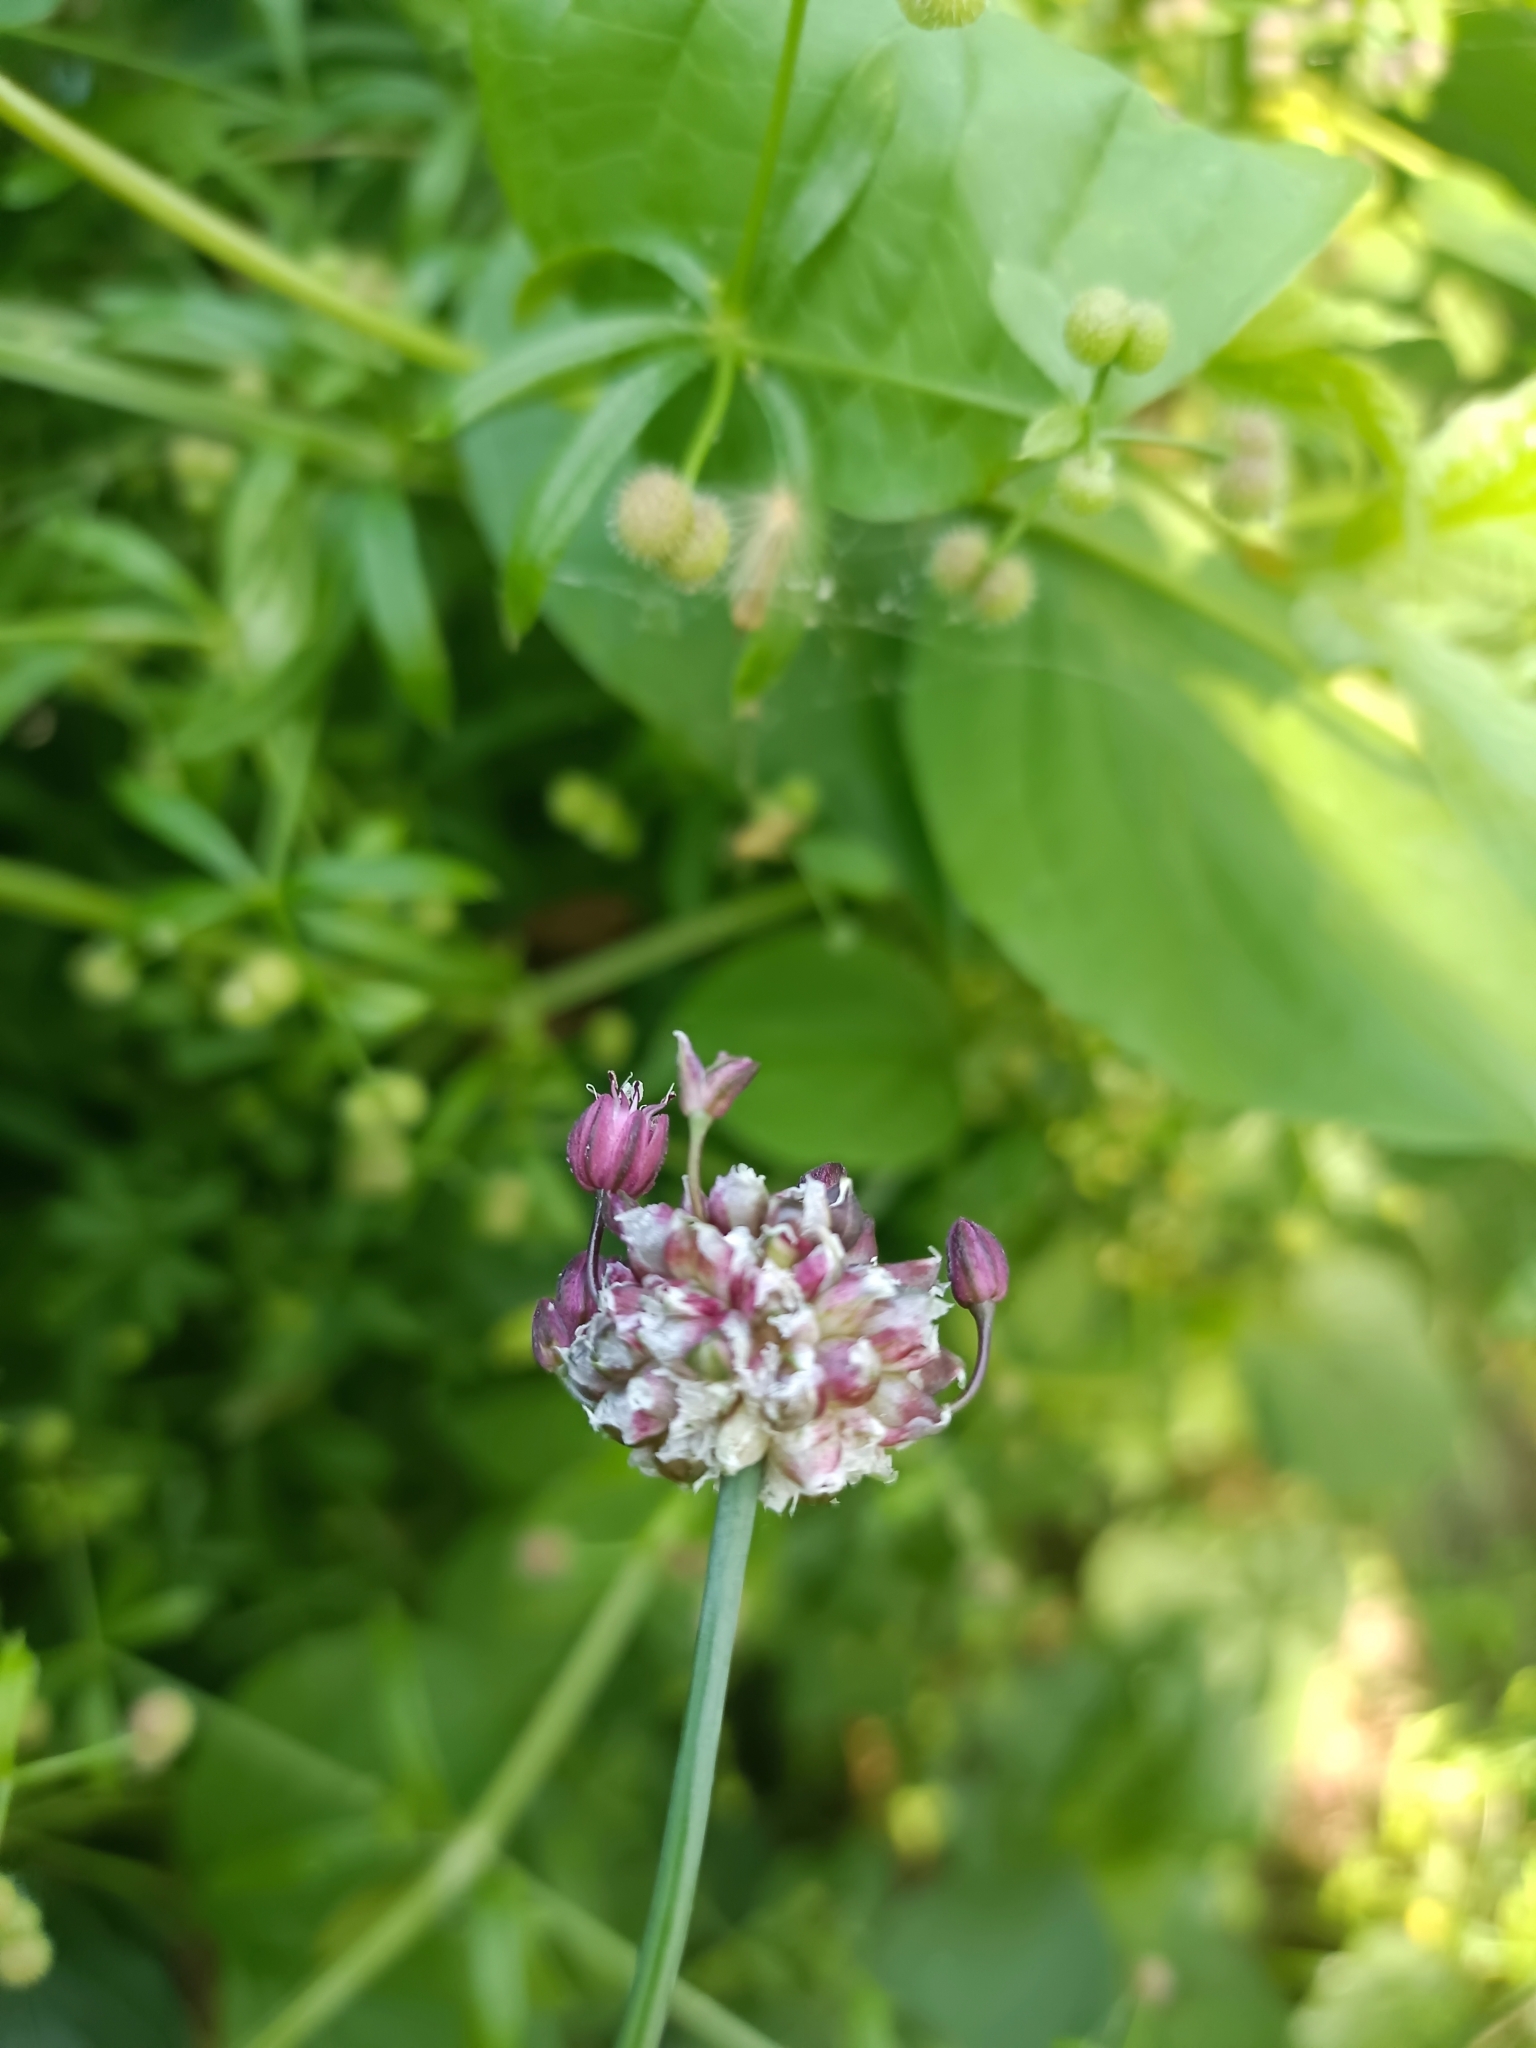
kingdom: Plantae
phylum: Tracheophyta
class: Liliopsida
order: Asparagales
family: Amaryllidaceae
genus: Allium
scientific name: Allium scorodoprasum
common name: Sand leek
